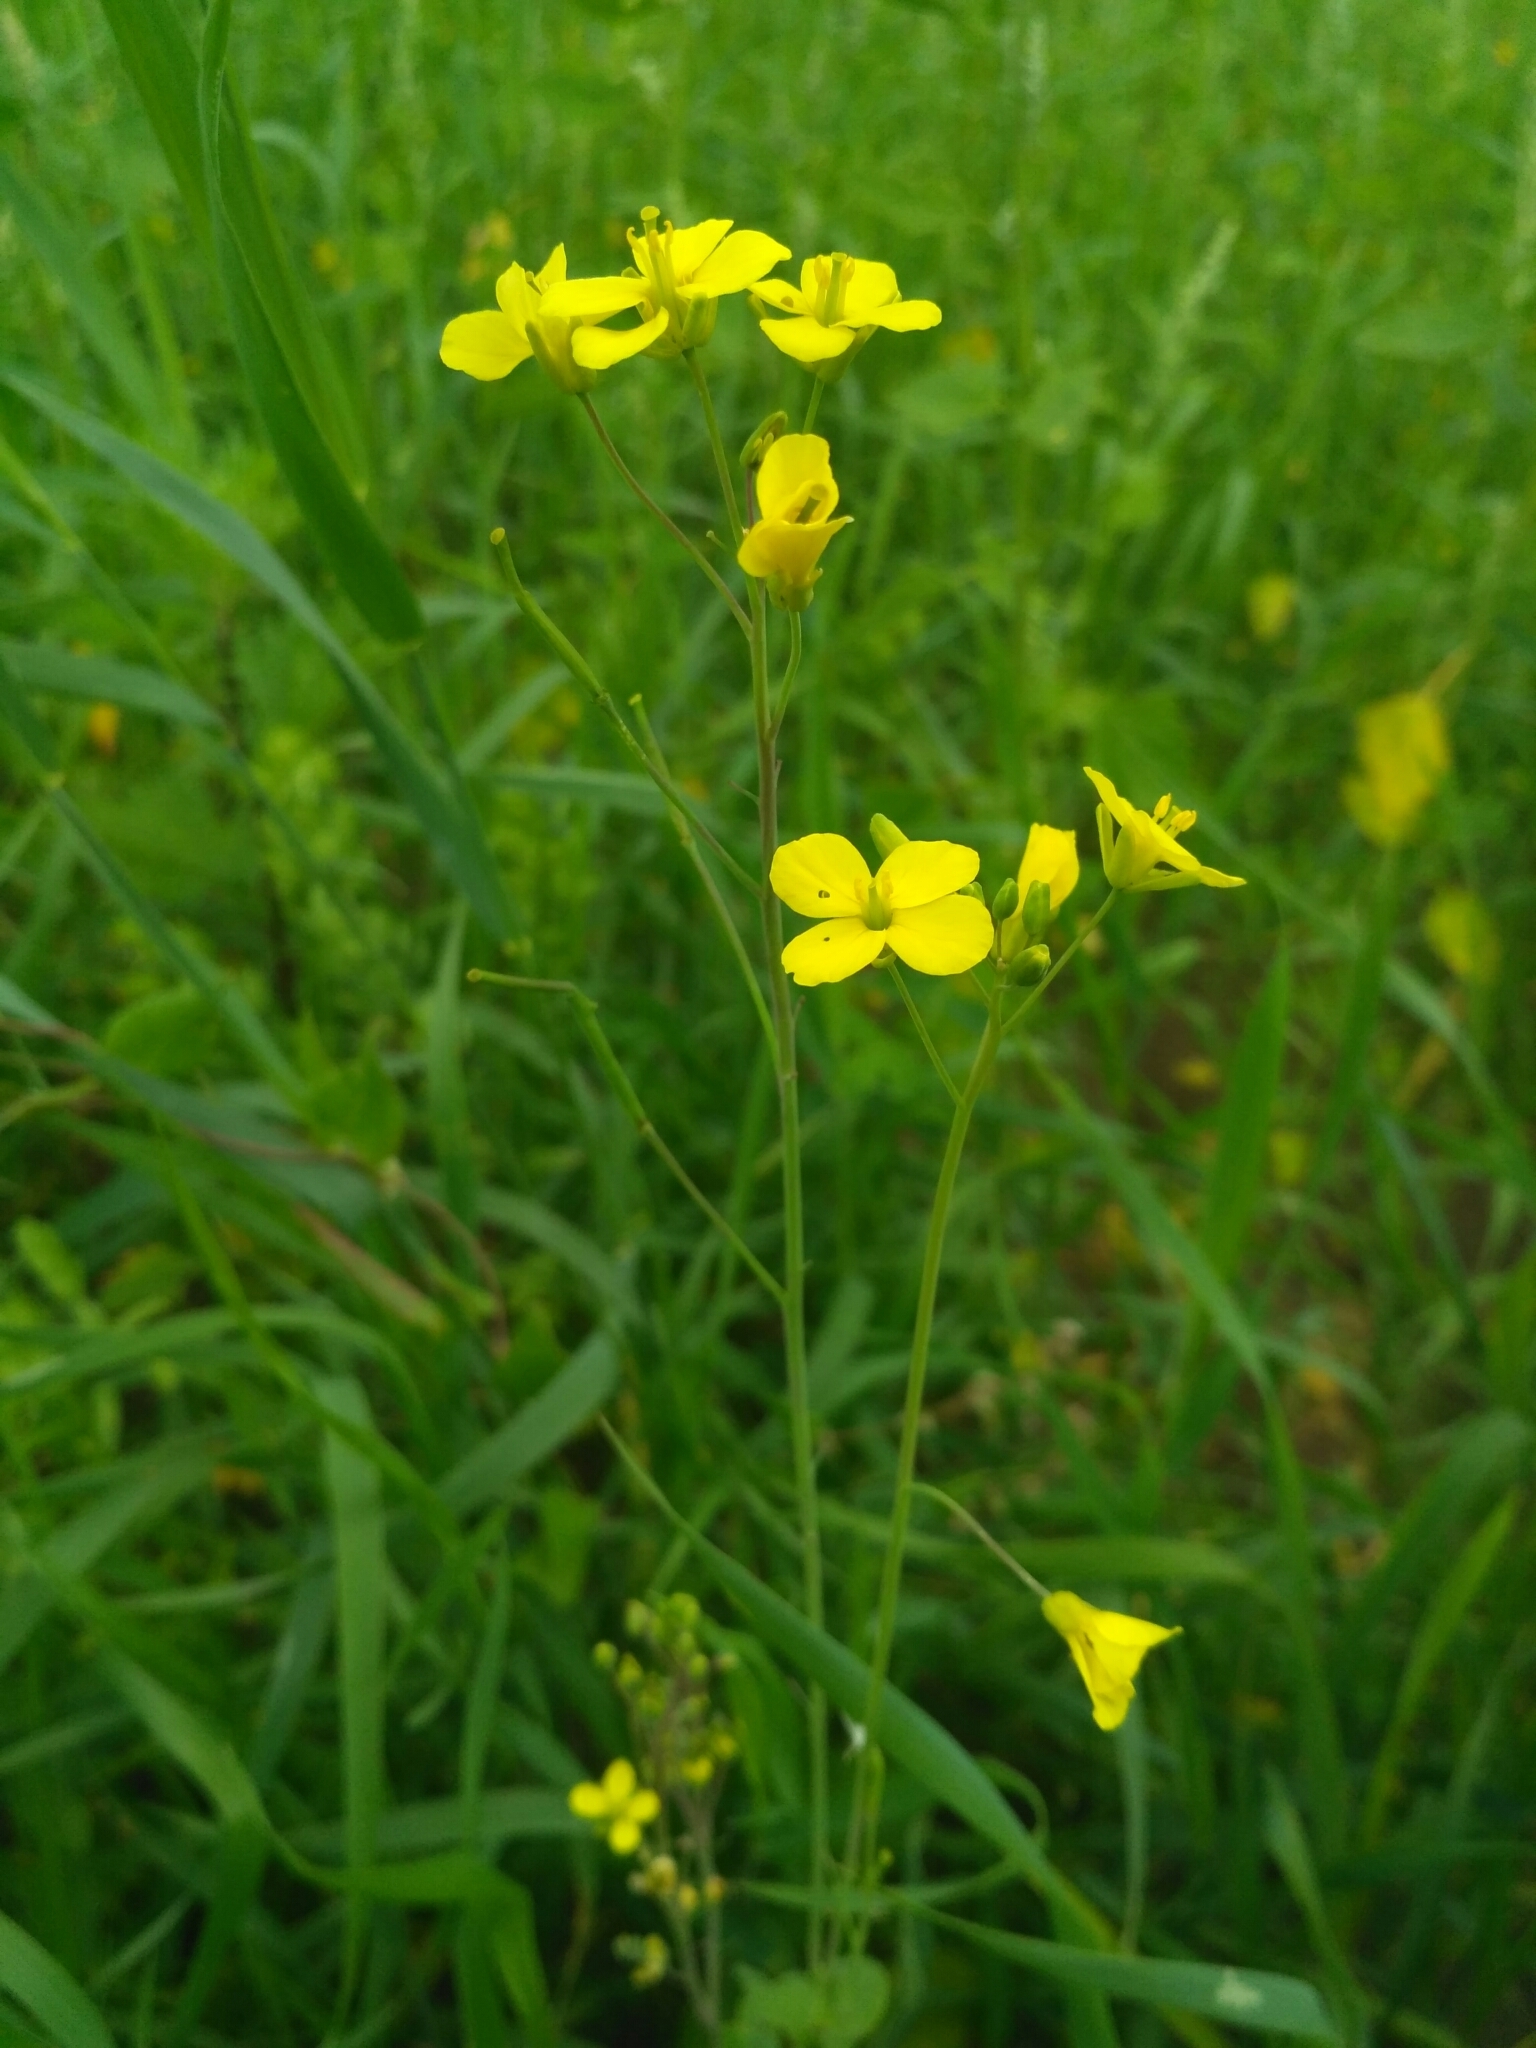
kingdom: Plantae
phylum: Tracheophyta
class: Magnoliopsida
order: Brassicales
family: Brassicaceae
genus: Brassica
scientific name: Brassica rapa
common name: Field mustard
